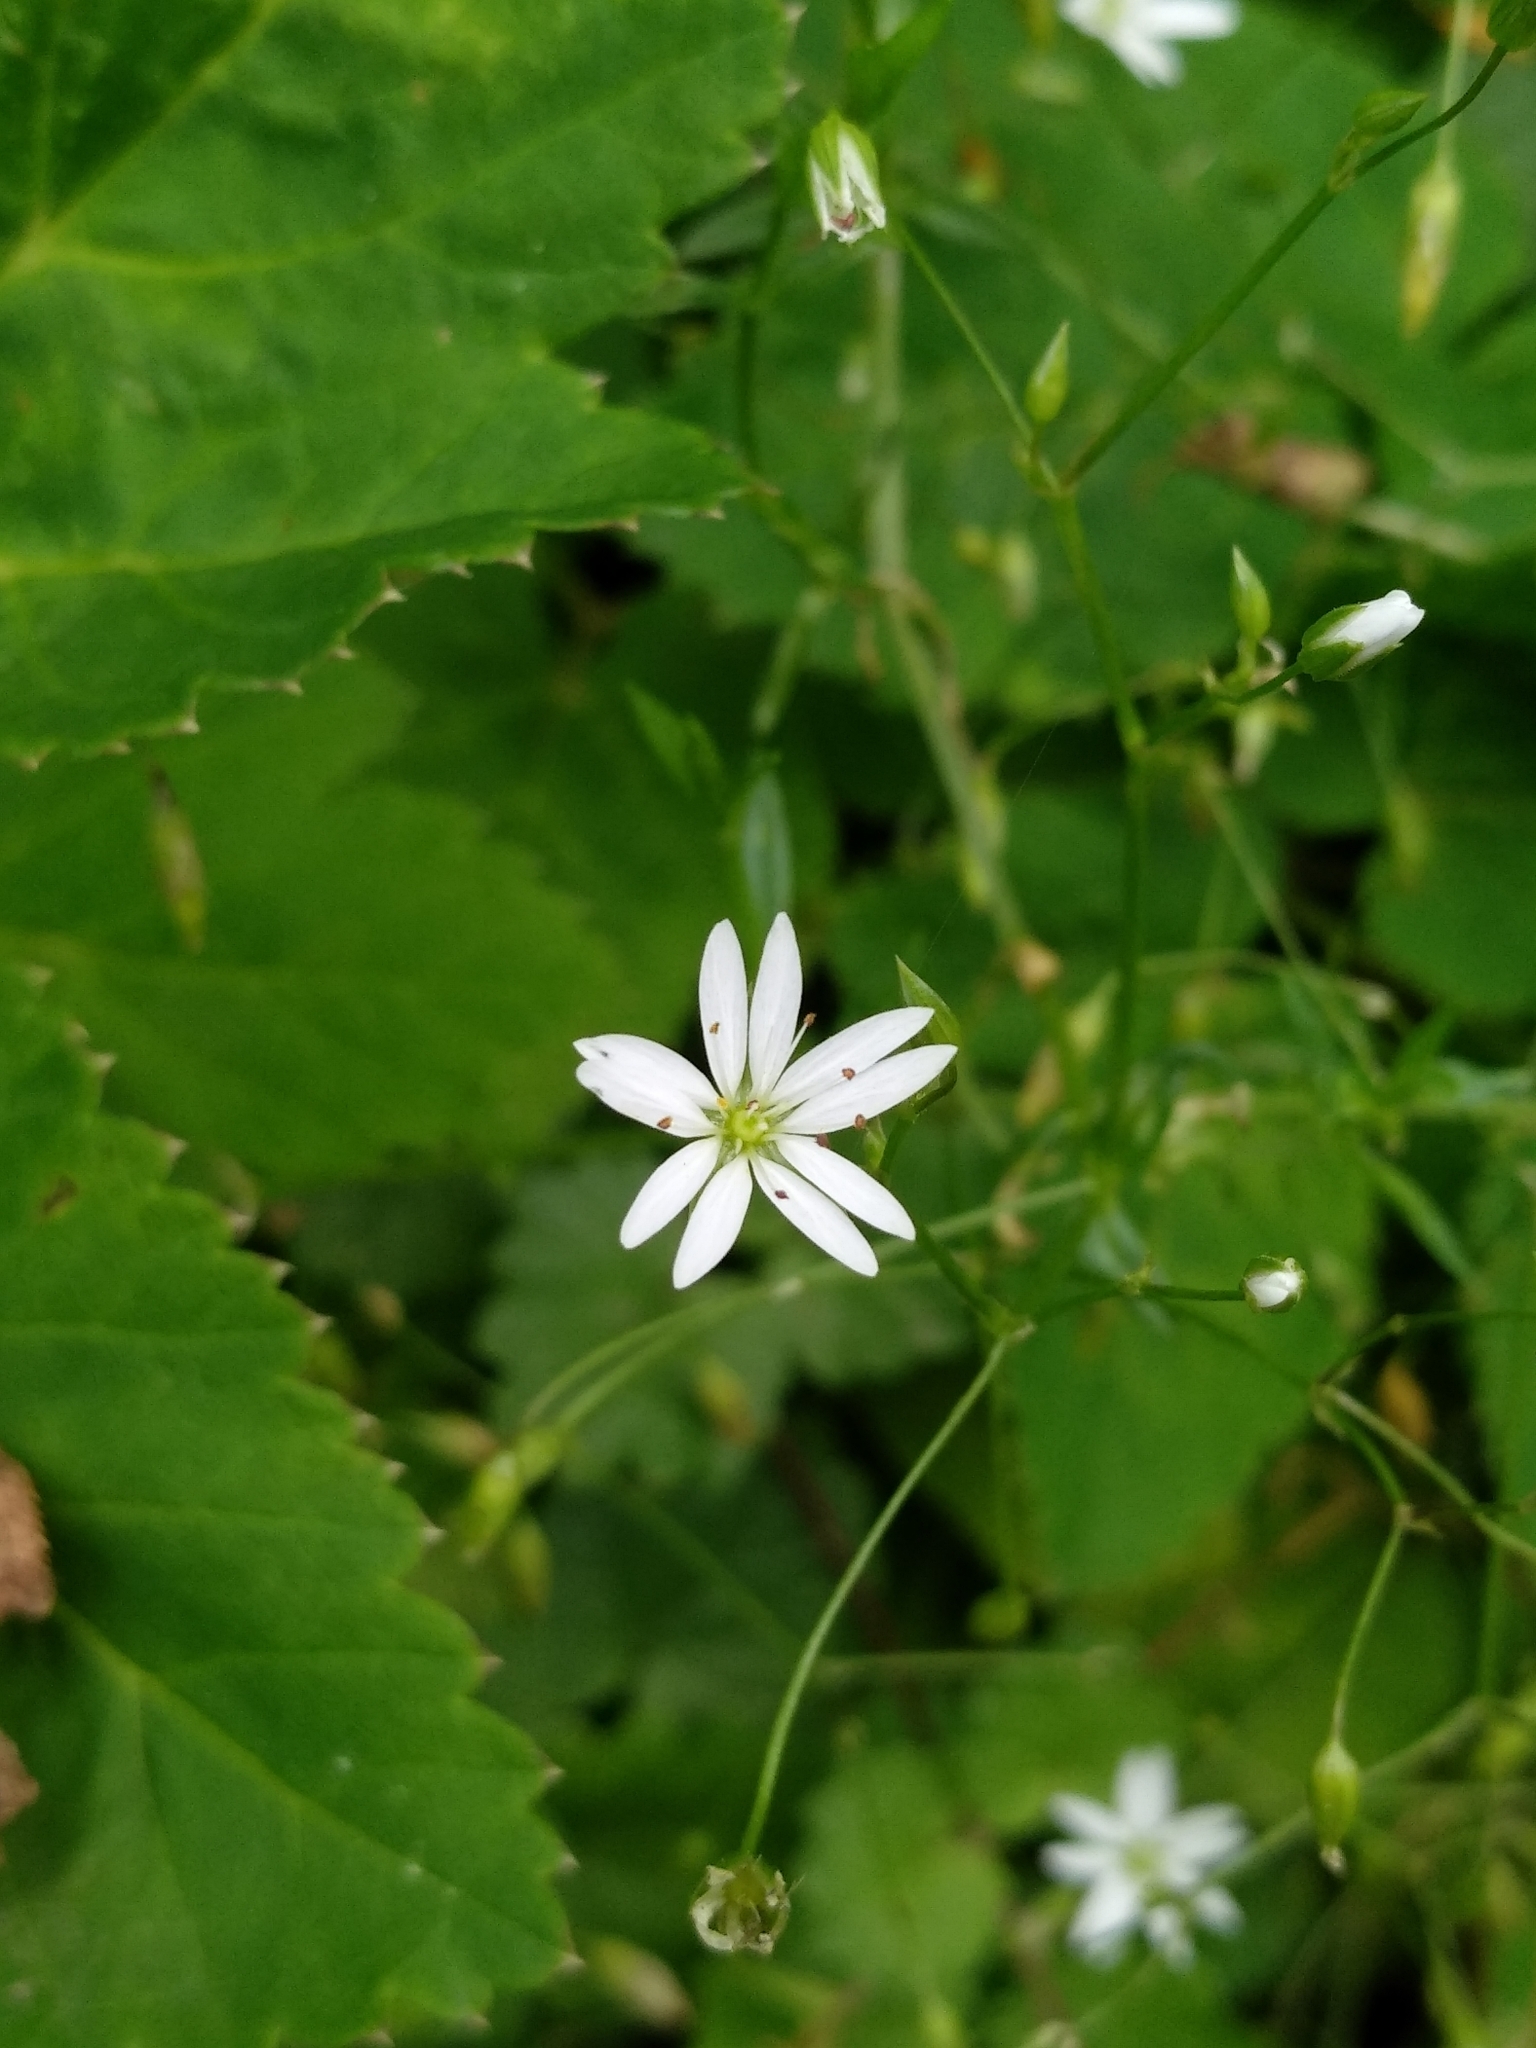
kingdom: Plantae
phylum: Tracheophyta
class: Magnoliopsida
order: Caryophyllales
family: Caryophyllaceae
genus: Stellaria
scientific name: Stellaria graminea
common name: Grass-like starwort
